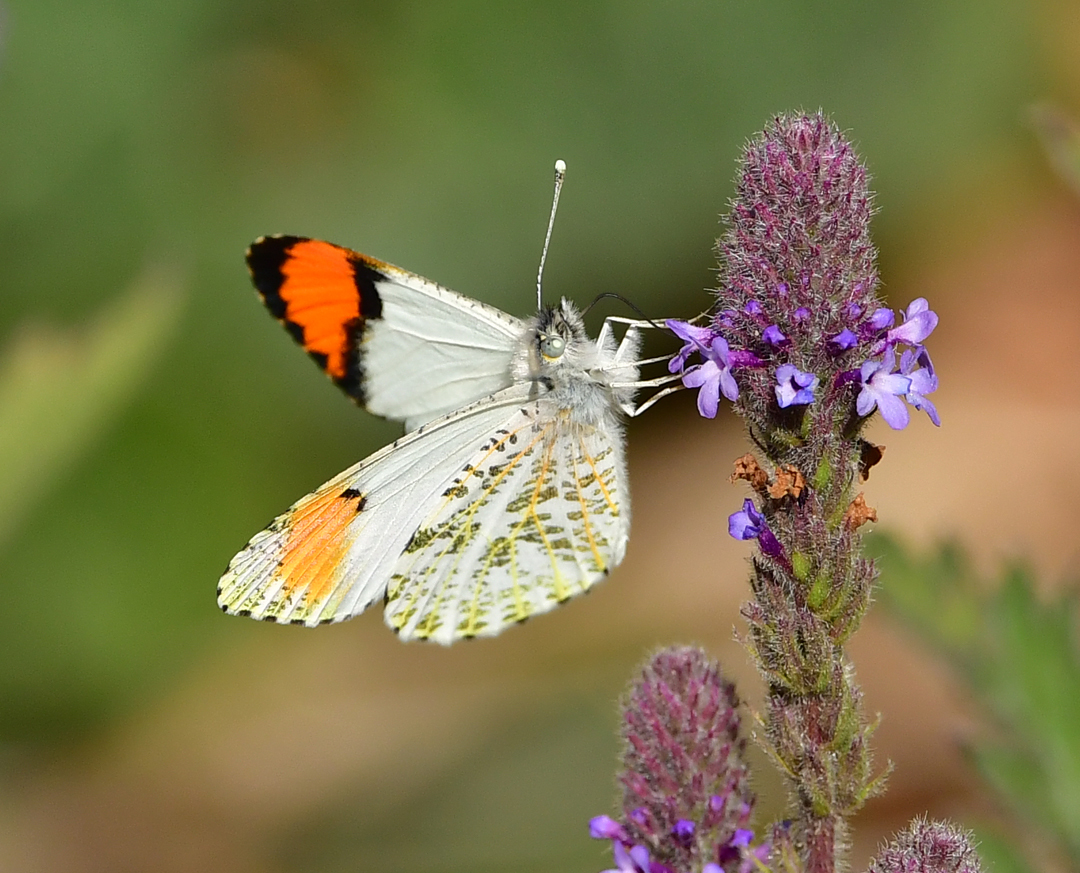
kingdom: Animalia
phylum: Arthropoda
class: Insecta
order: Lepidoptera
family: Pieridae
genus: Anthocharis
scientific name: Anthocharis sara
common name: Sara's orangetip
